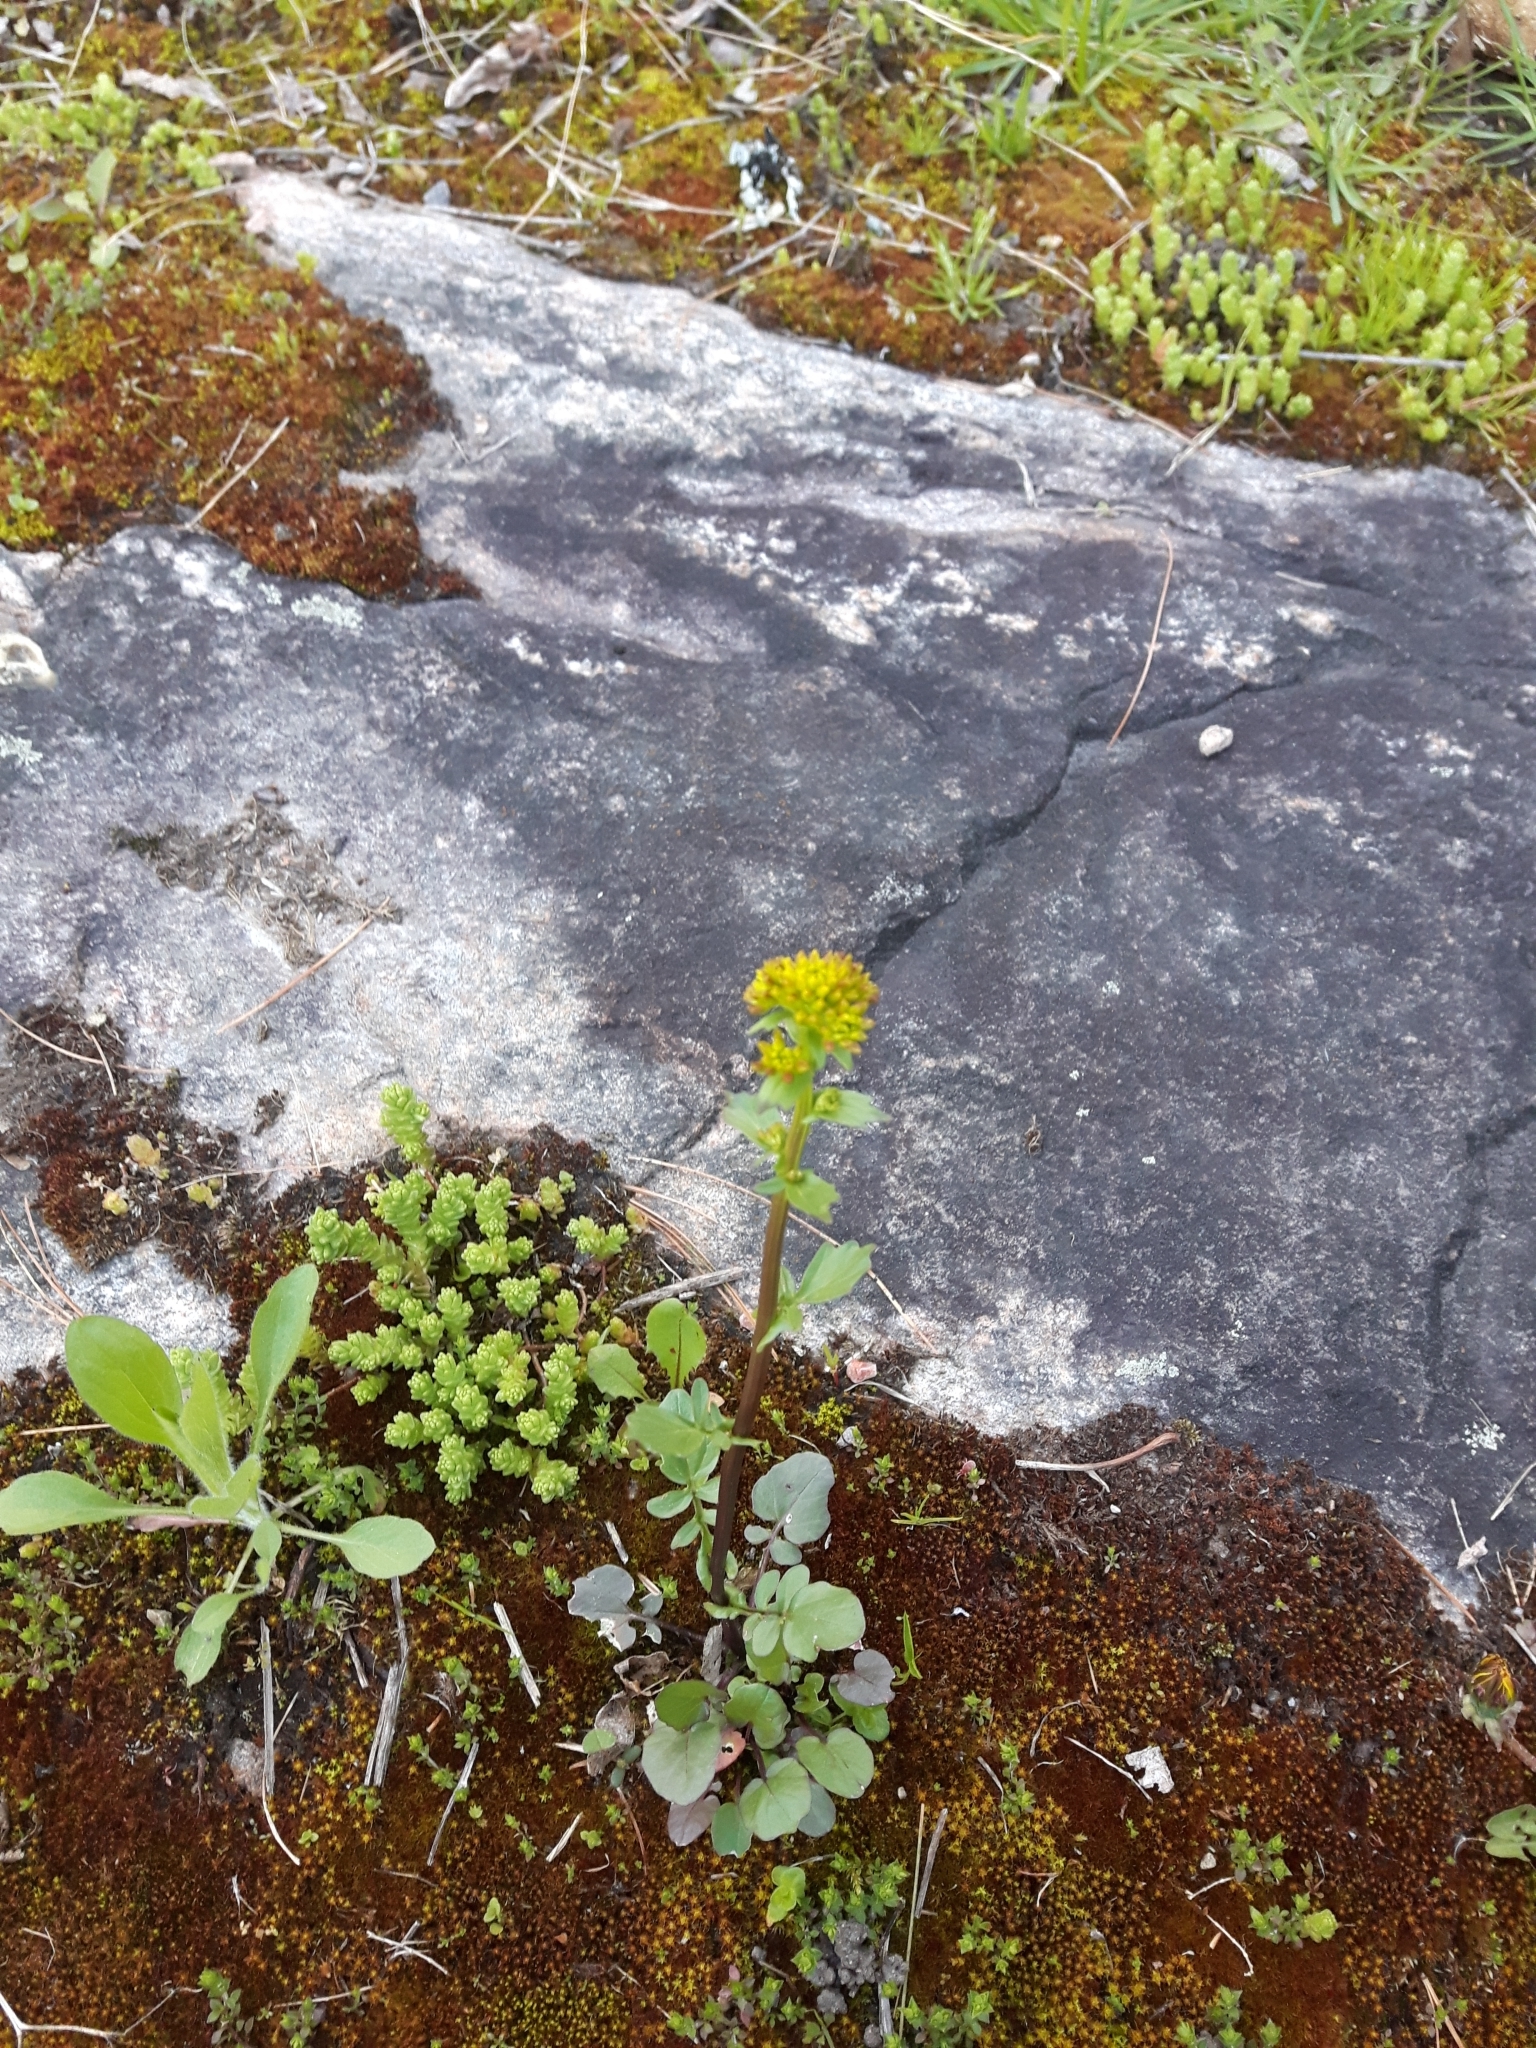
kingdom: Plantae
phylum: Tracheophyta
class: Magnoliopsida
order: Brassicales
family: Brassicaceae
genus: Barbarea
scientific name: Barbarea vulgaris
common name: Cressy-greens
